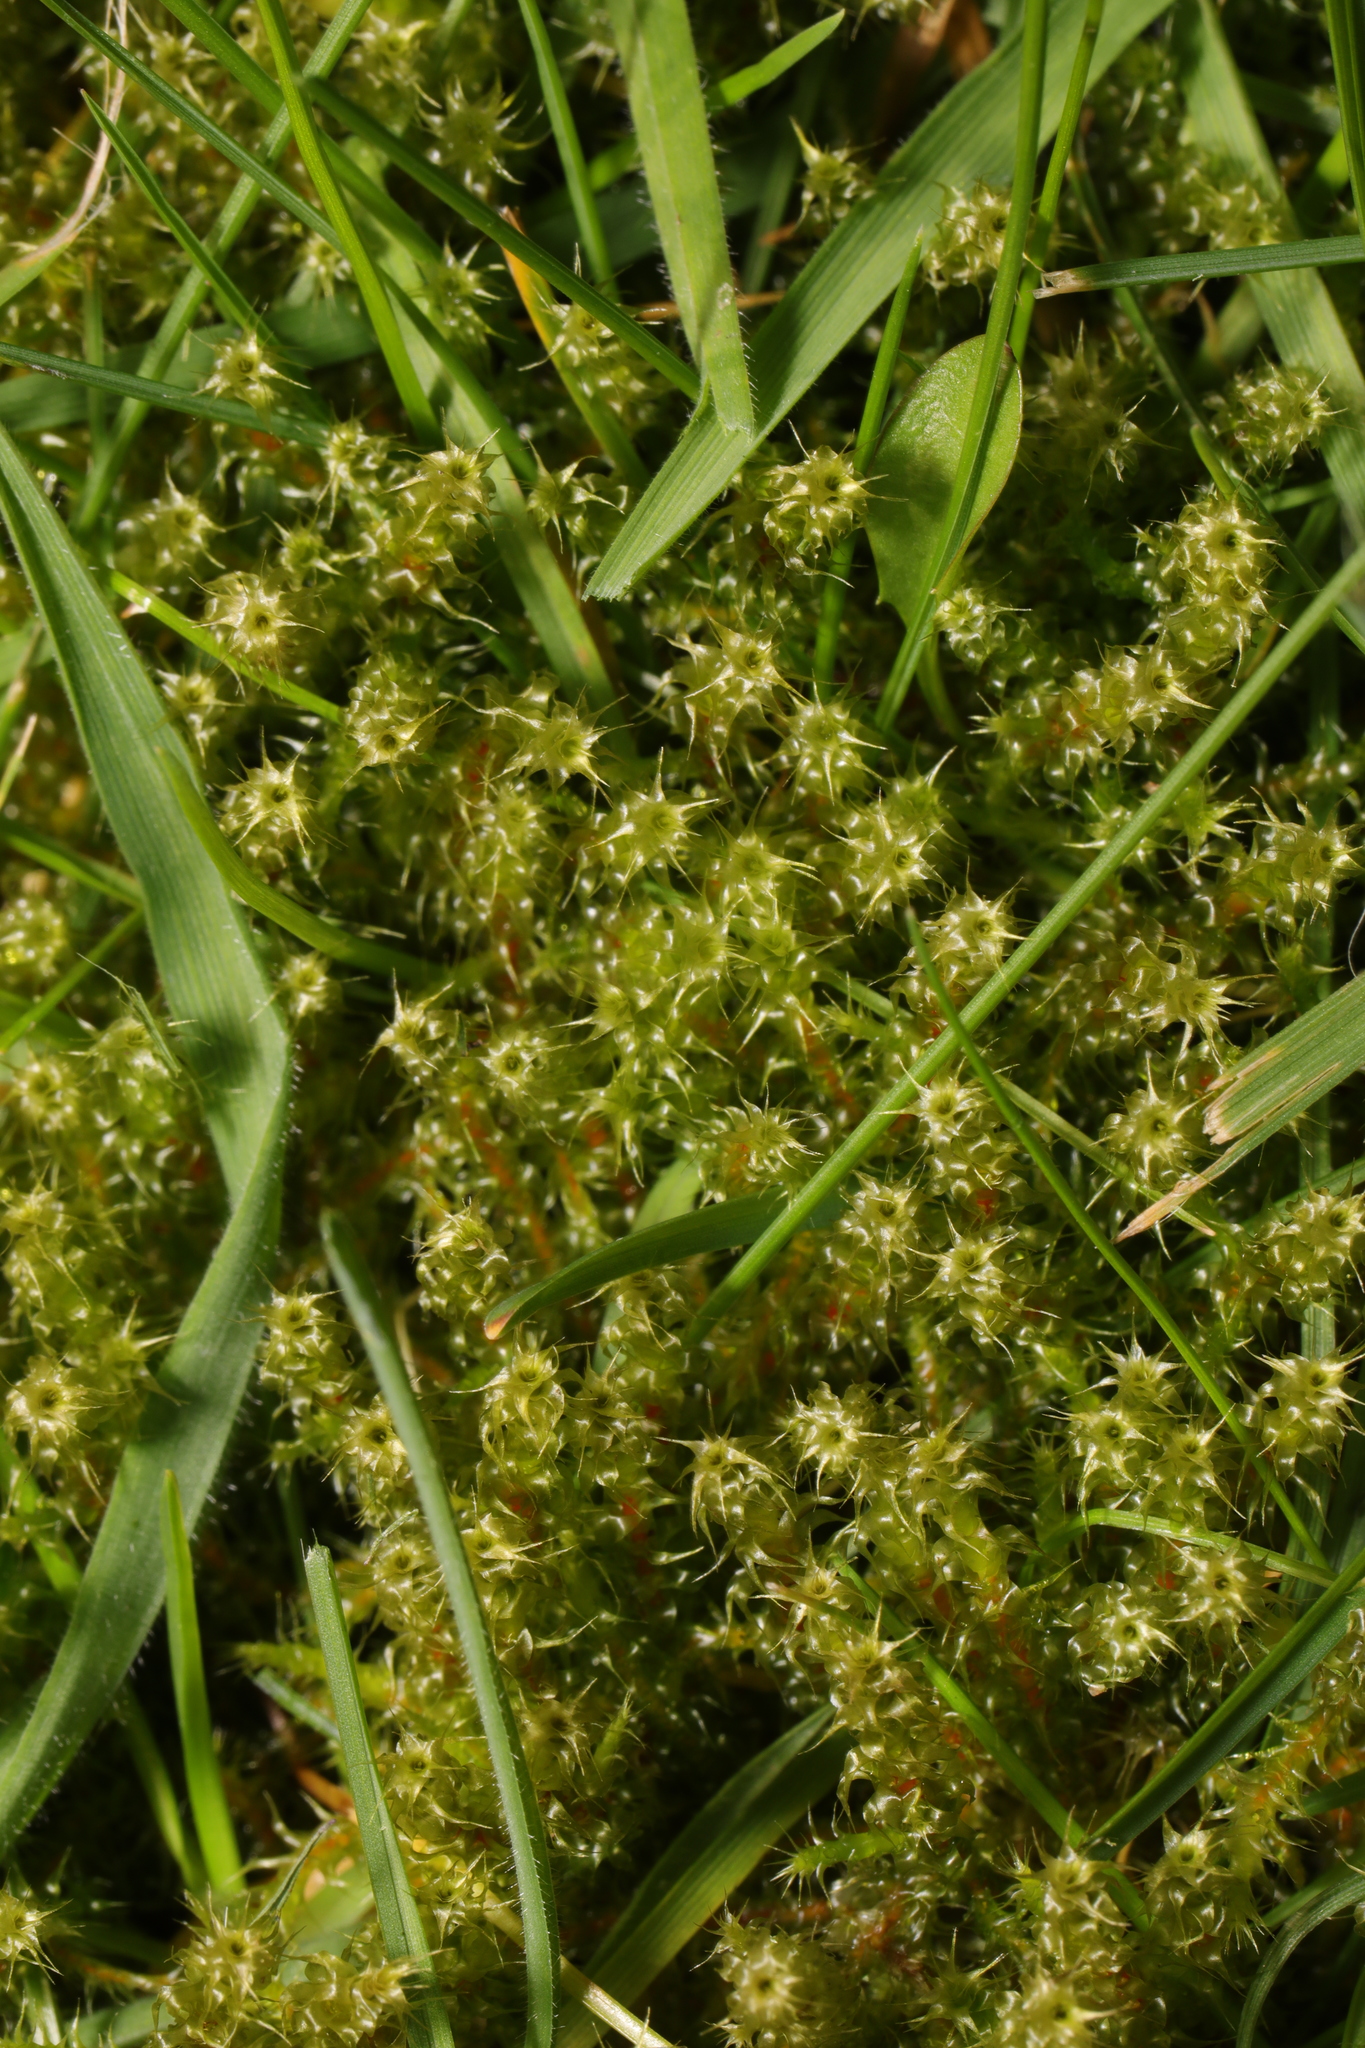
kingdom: Plantae
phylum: Bryophyta
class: Bryopsida
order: Hypnales
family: Hylocomiaceae
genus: Rhytidiadelphus
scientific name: Rhytidiadelphus squarrosus
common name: Springy turf-moss
